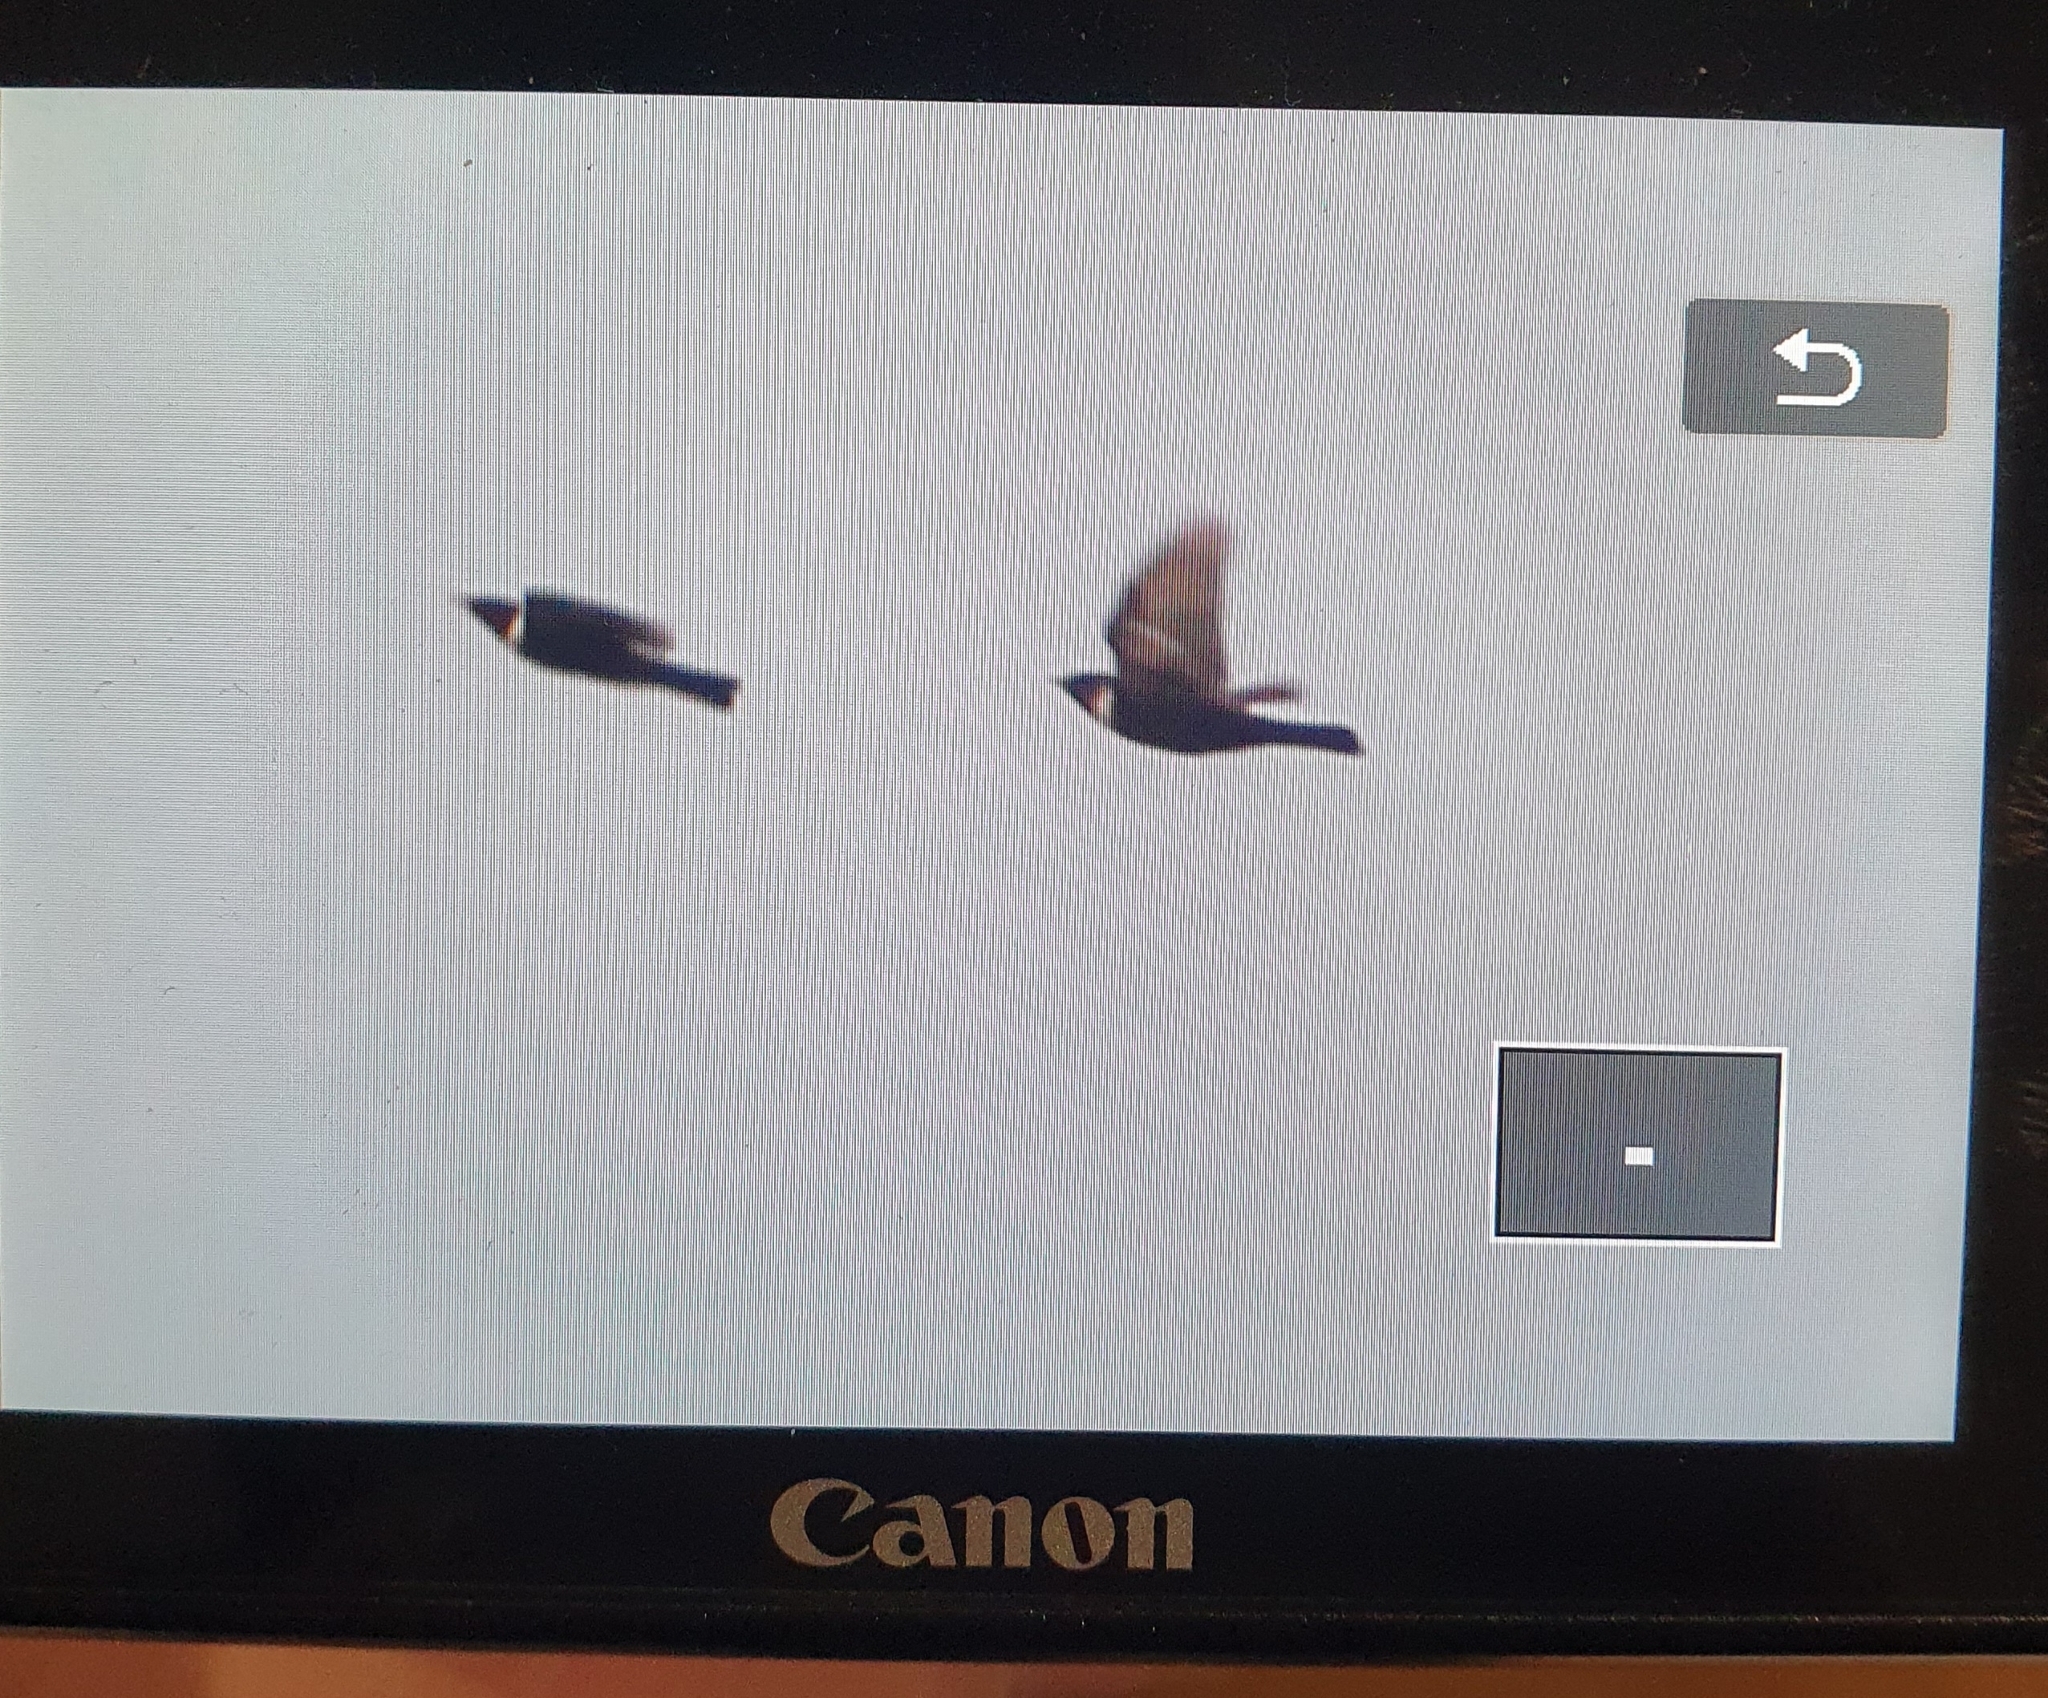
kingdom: Animalia
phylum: Chordata
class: Aves
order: Passeriformes
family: Turdidae
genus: Turdus
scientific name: Turdus torquatus
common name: Ring ouzel
